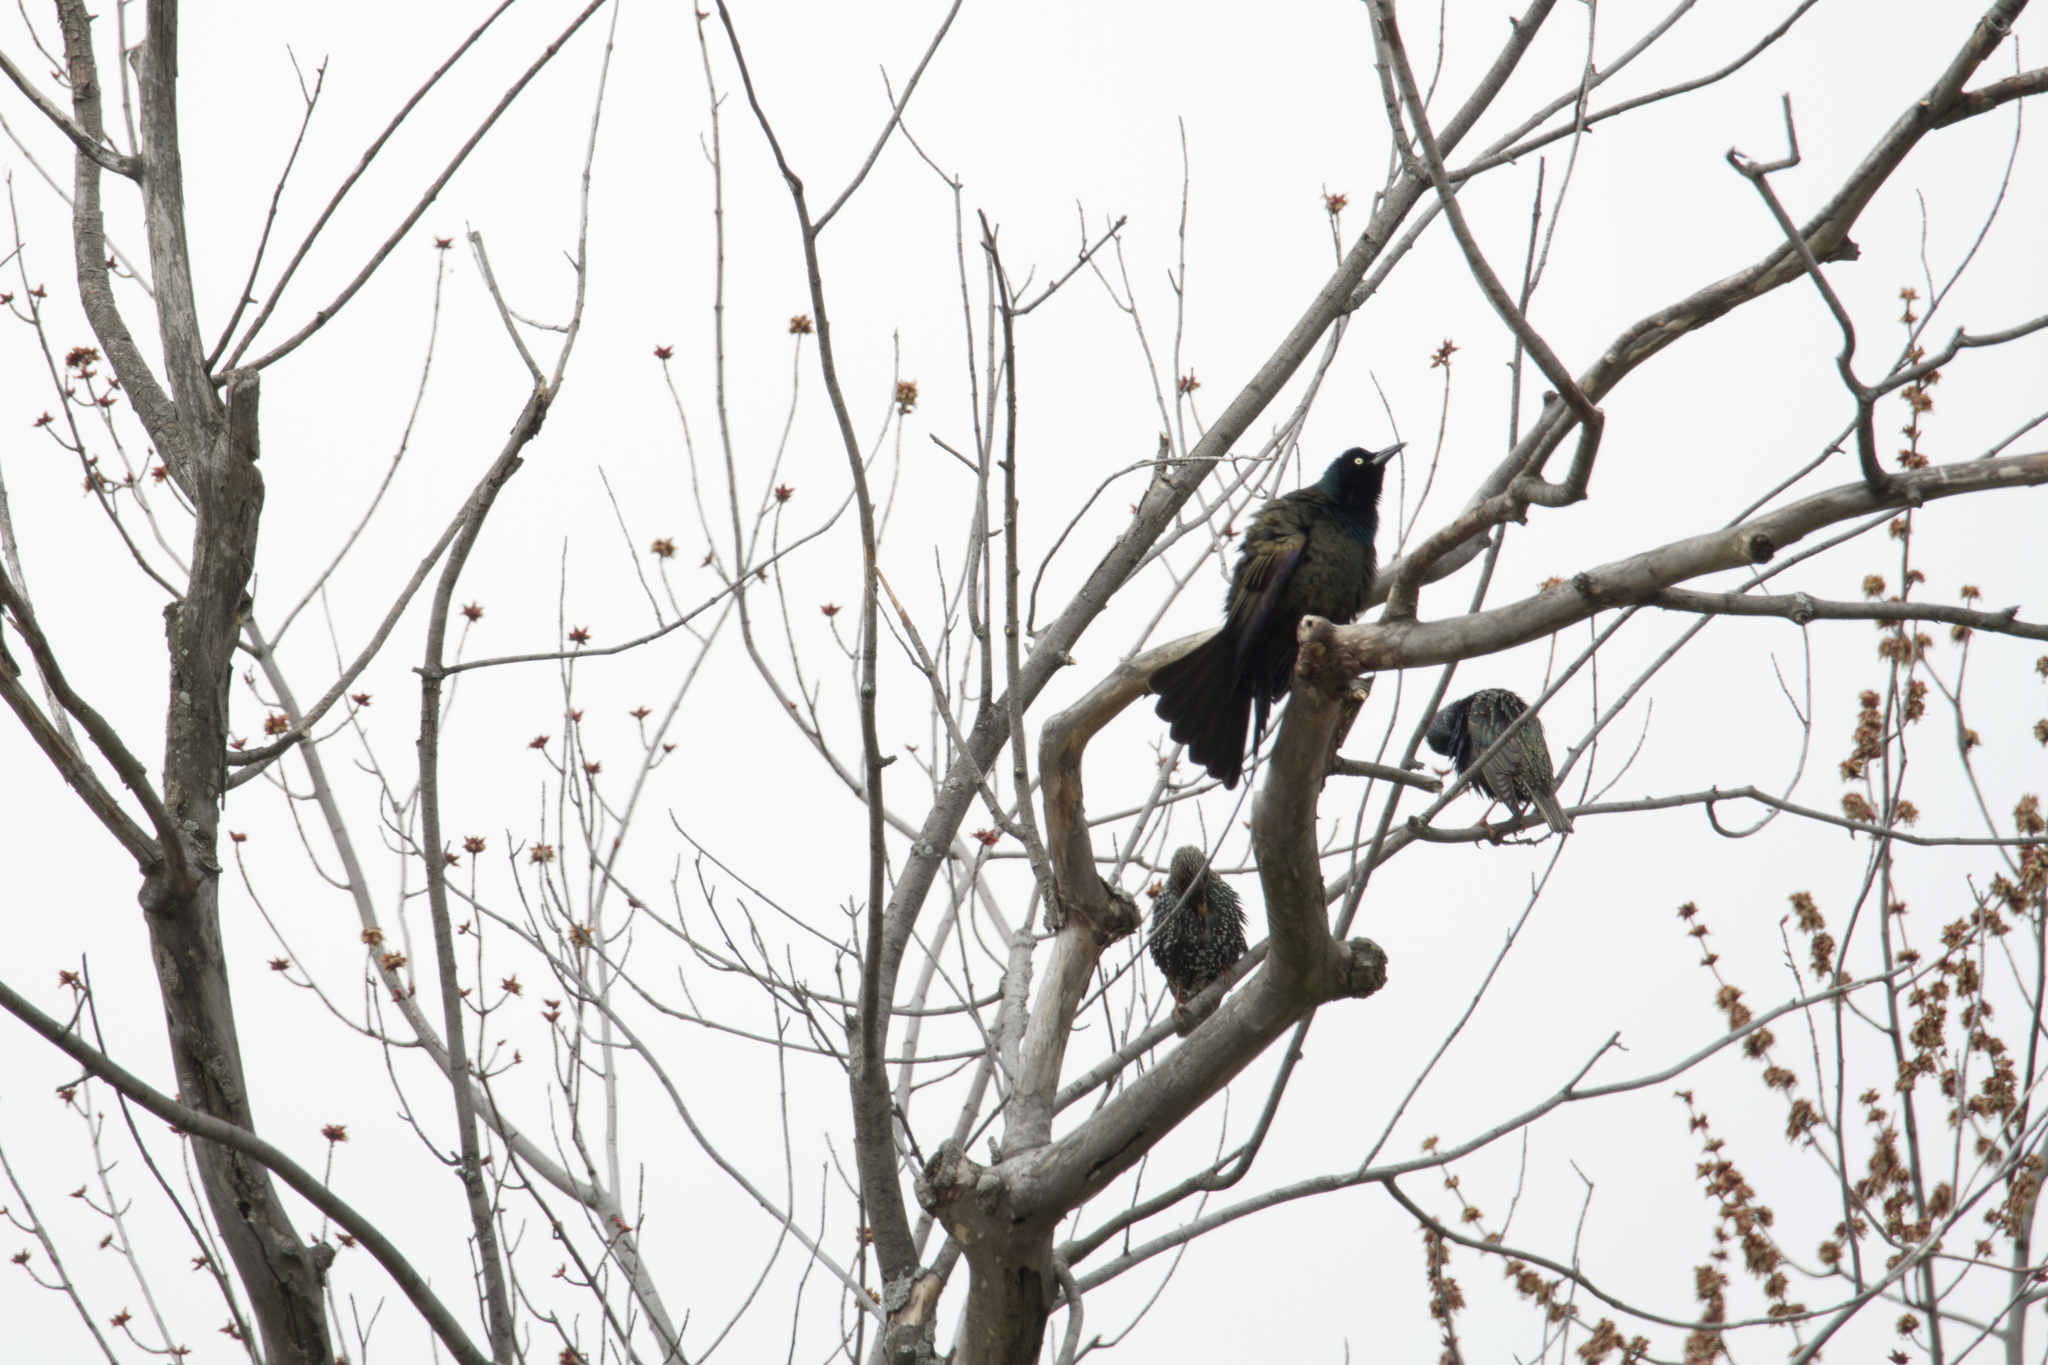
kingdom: Animalia
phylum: Chordata
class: Aves
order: Passeriformes
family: Icteridae
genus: Quiscalus
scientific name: Quiscalus quiscula
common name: Common grackle
